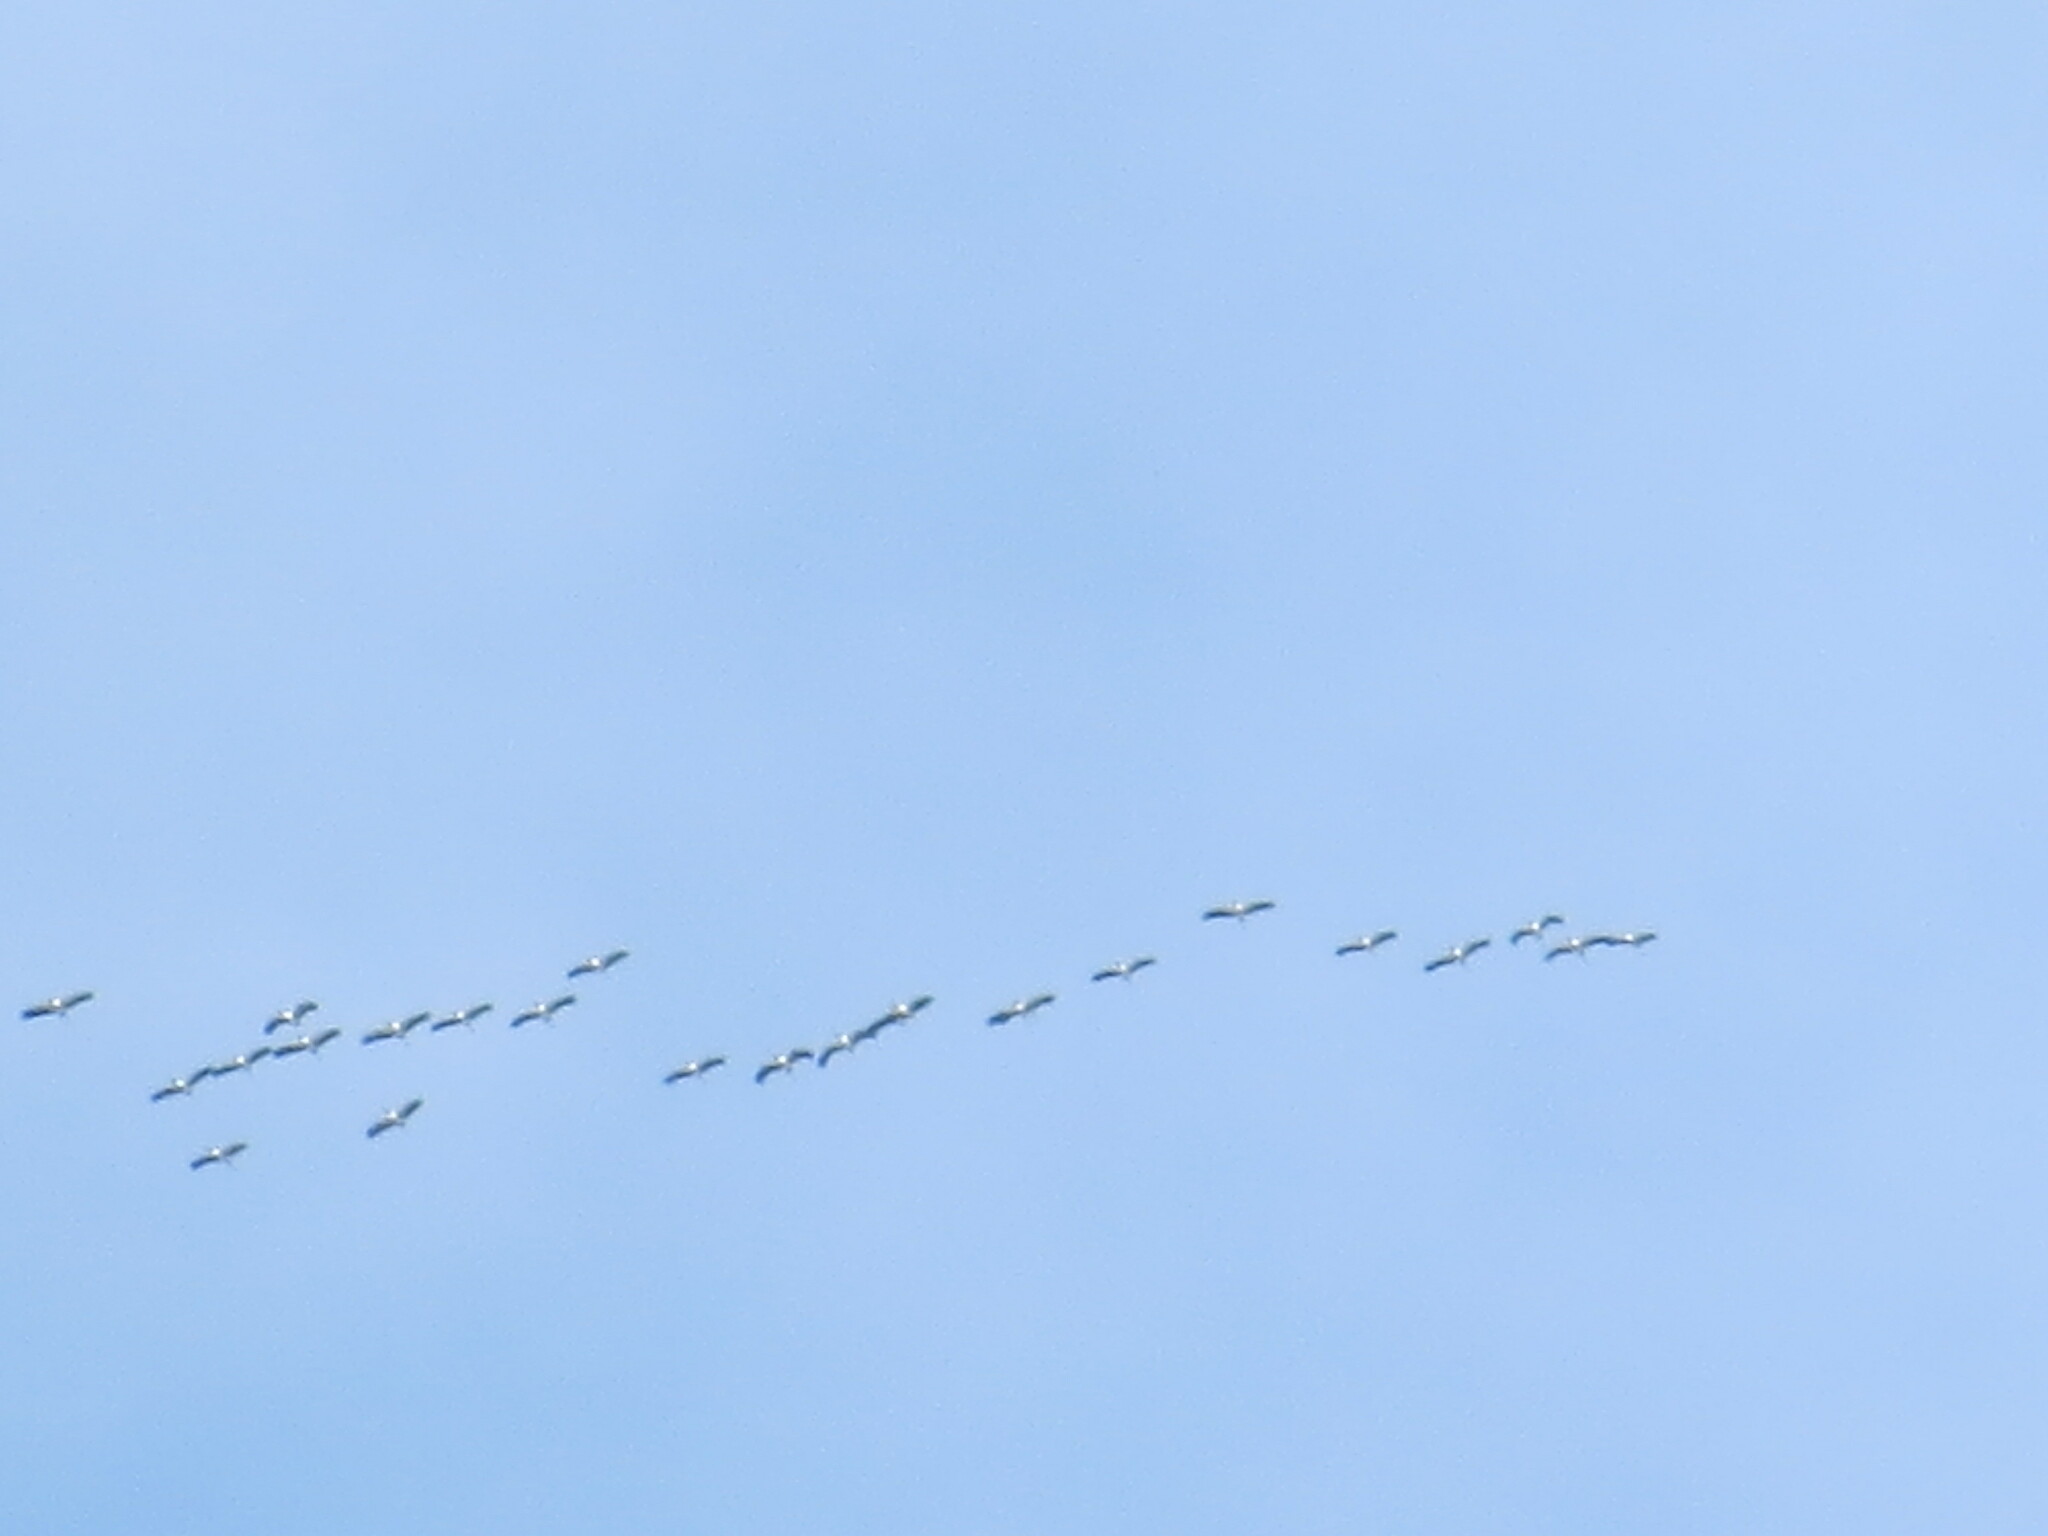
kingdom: Animalia
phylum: Chordata
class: Aves
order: Pelecaniformes
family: Pelecanidae
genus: Pelecanus
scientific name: Pelecanus erythrorhynchos
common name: American white pelican
